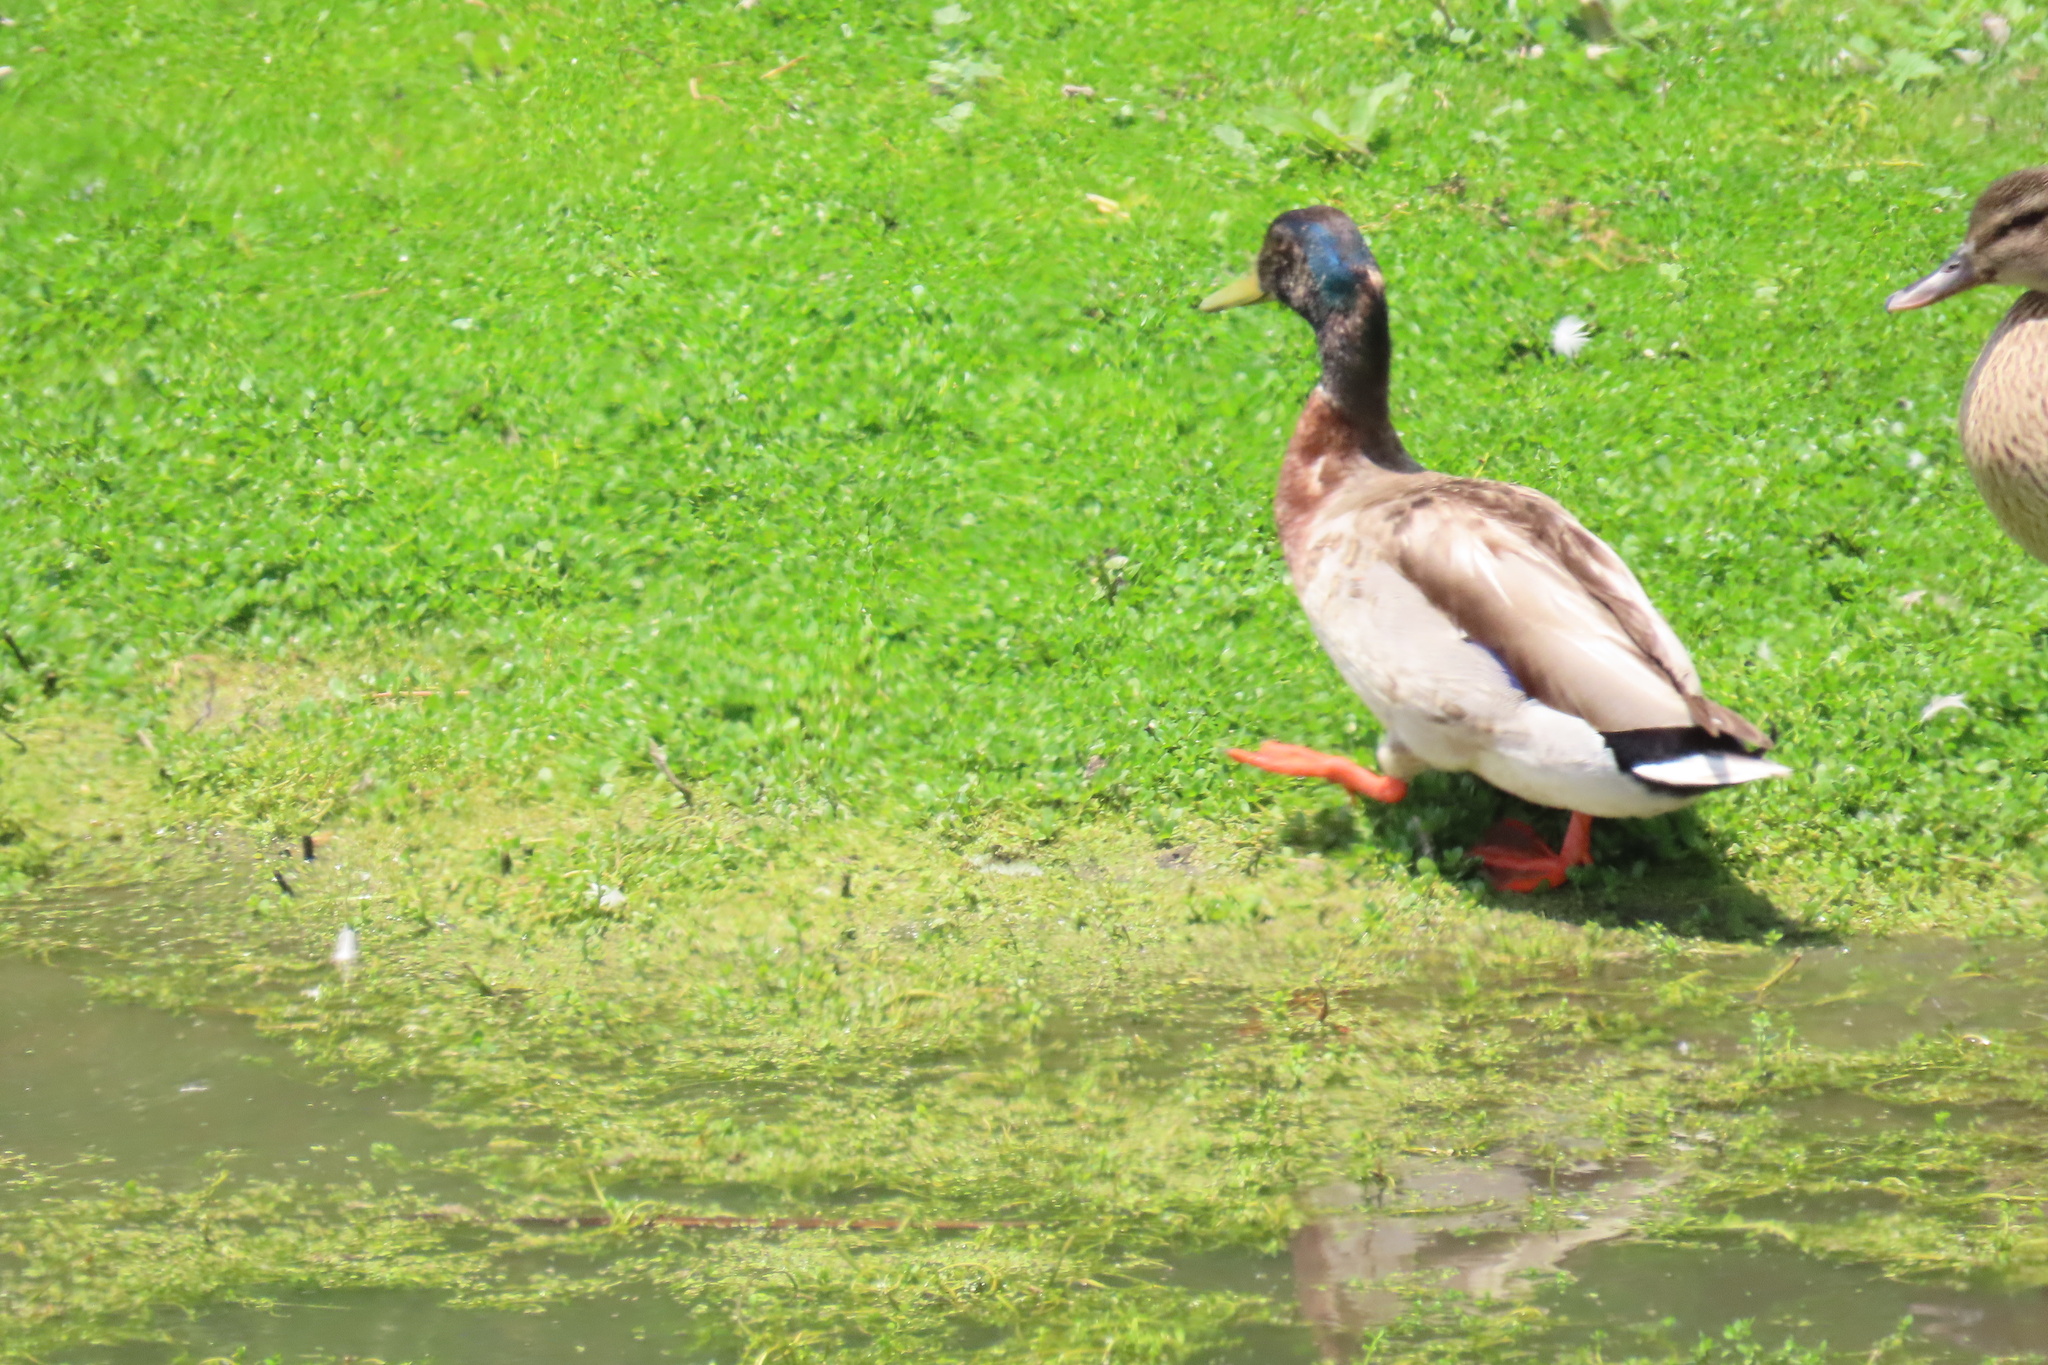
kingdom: Animalia
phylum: Chordata
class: Aves
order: Anseriformes
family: Anatidae
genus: Anas
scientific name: Anas platyrhynchos
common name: Mallard
